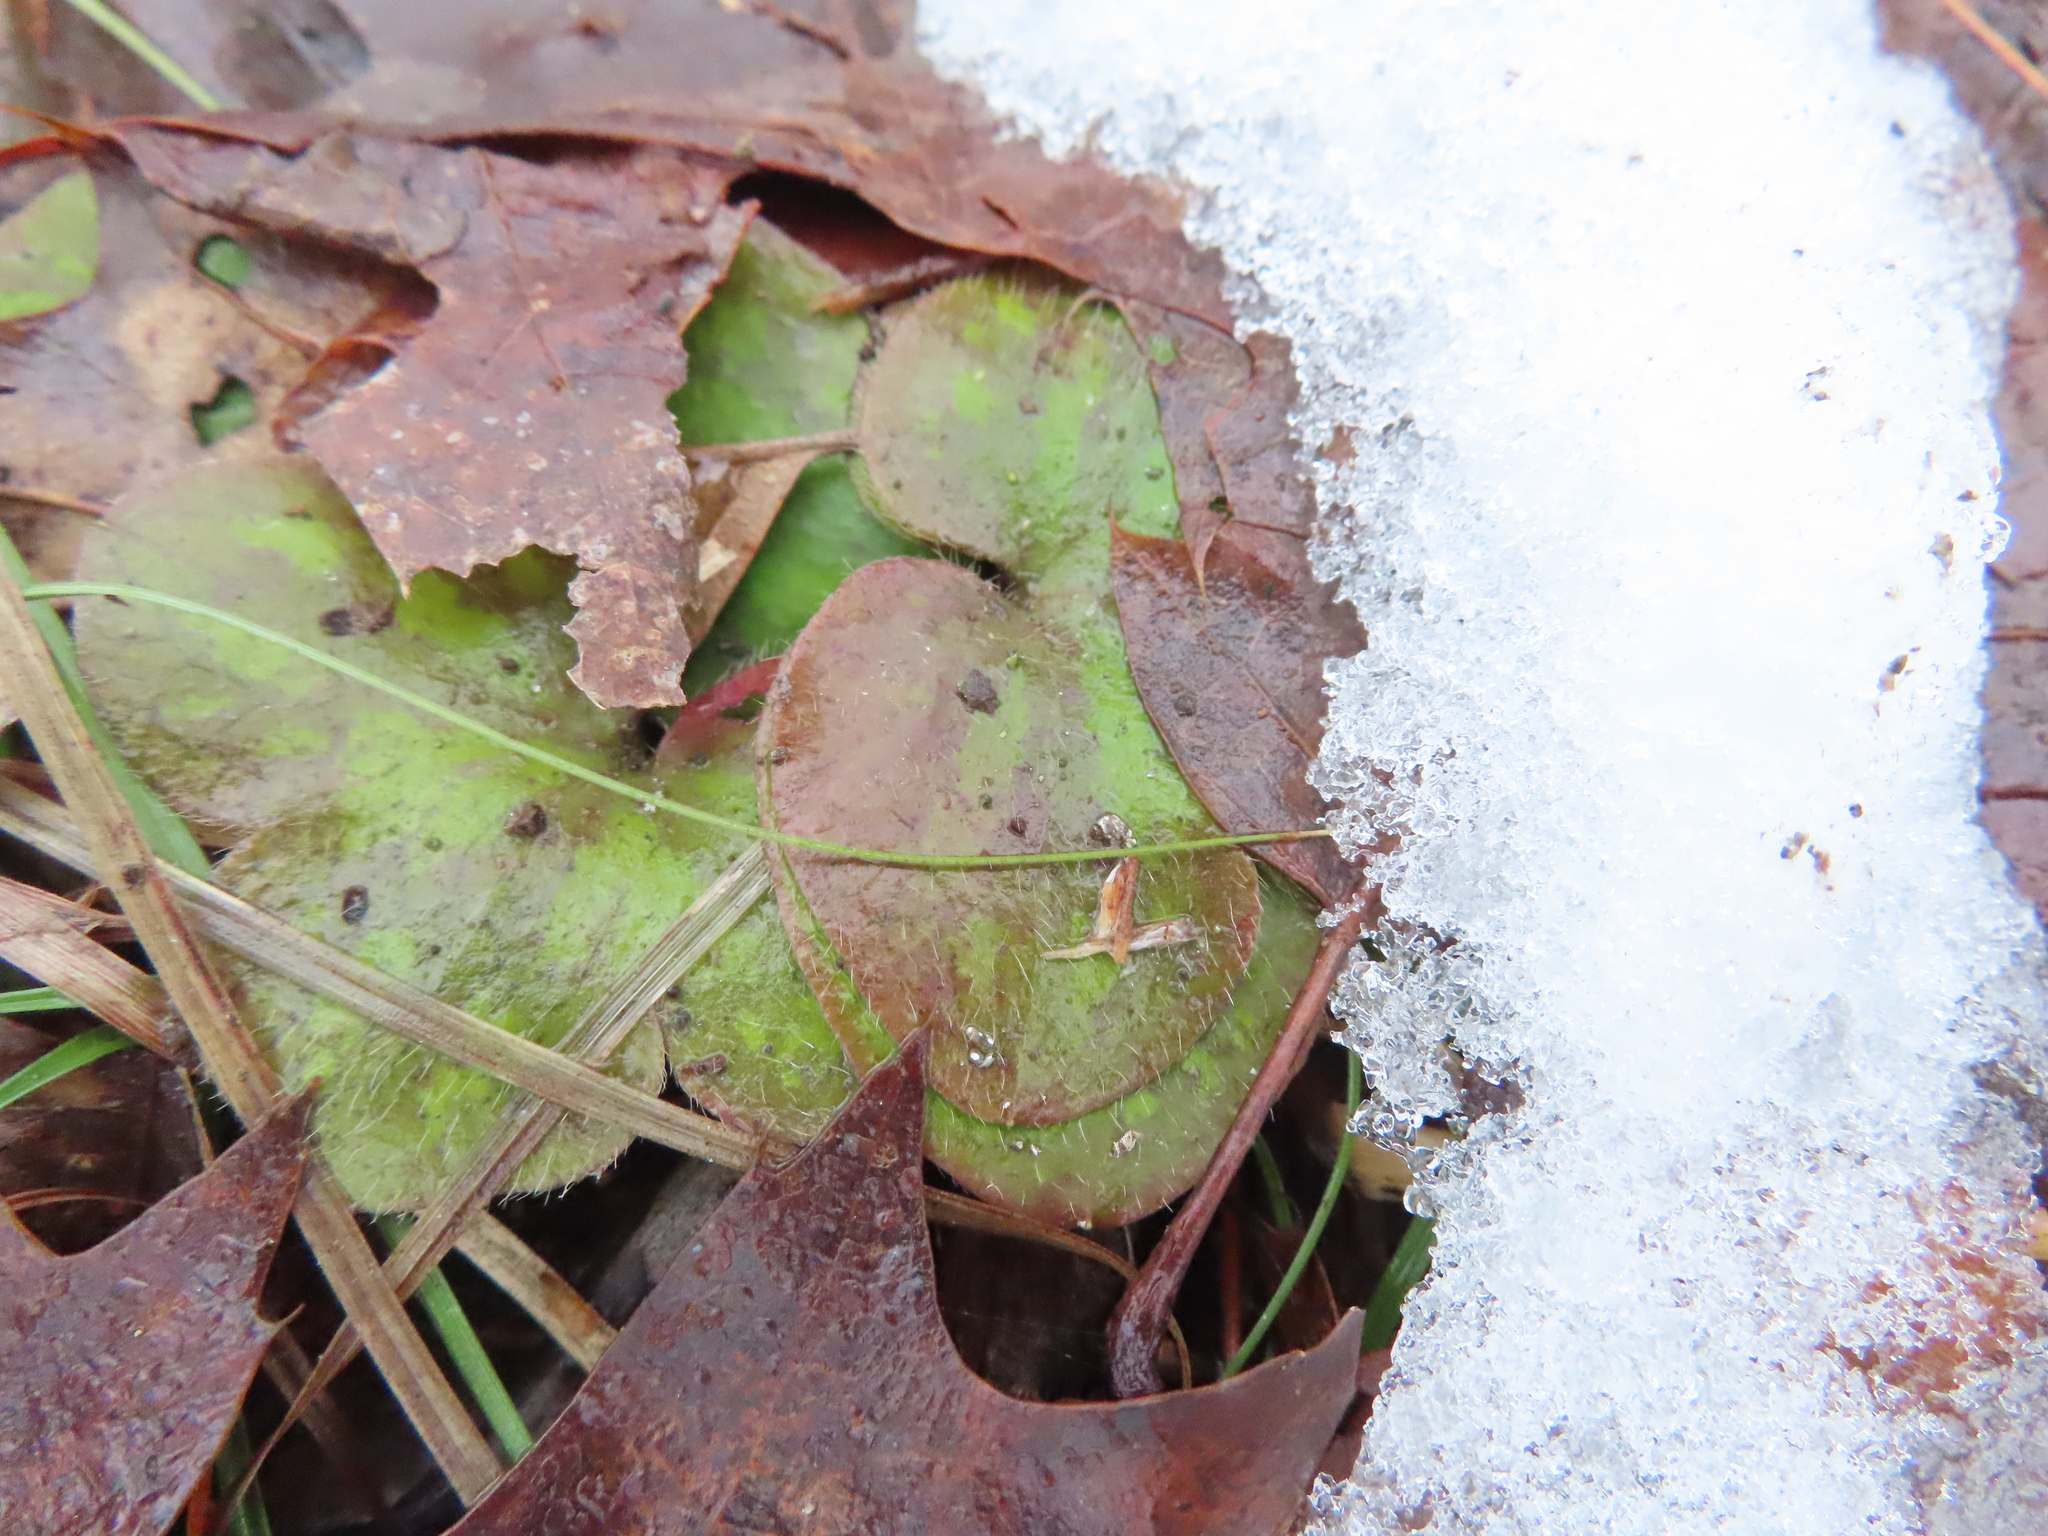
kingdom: Plantae
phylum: Tracheophyta
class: Magnoliopsida
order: Ranunculales
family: Ranunculaceae
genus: Hepatica
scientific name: Hepatica americana
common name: American hepatica
